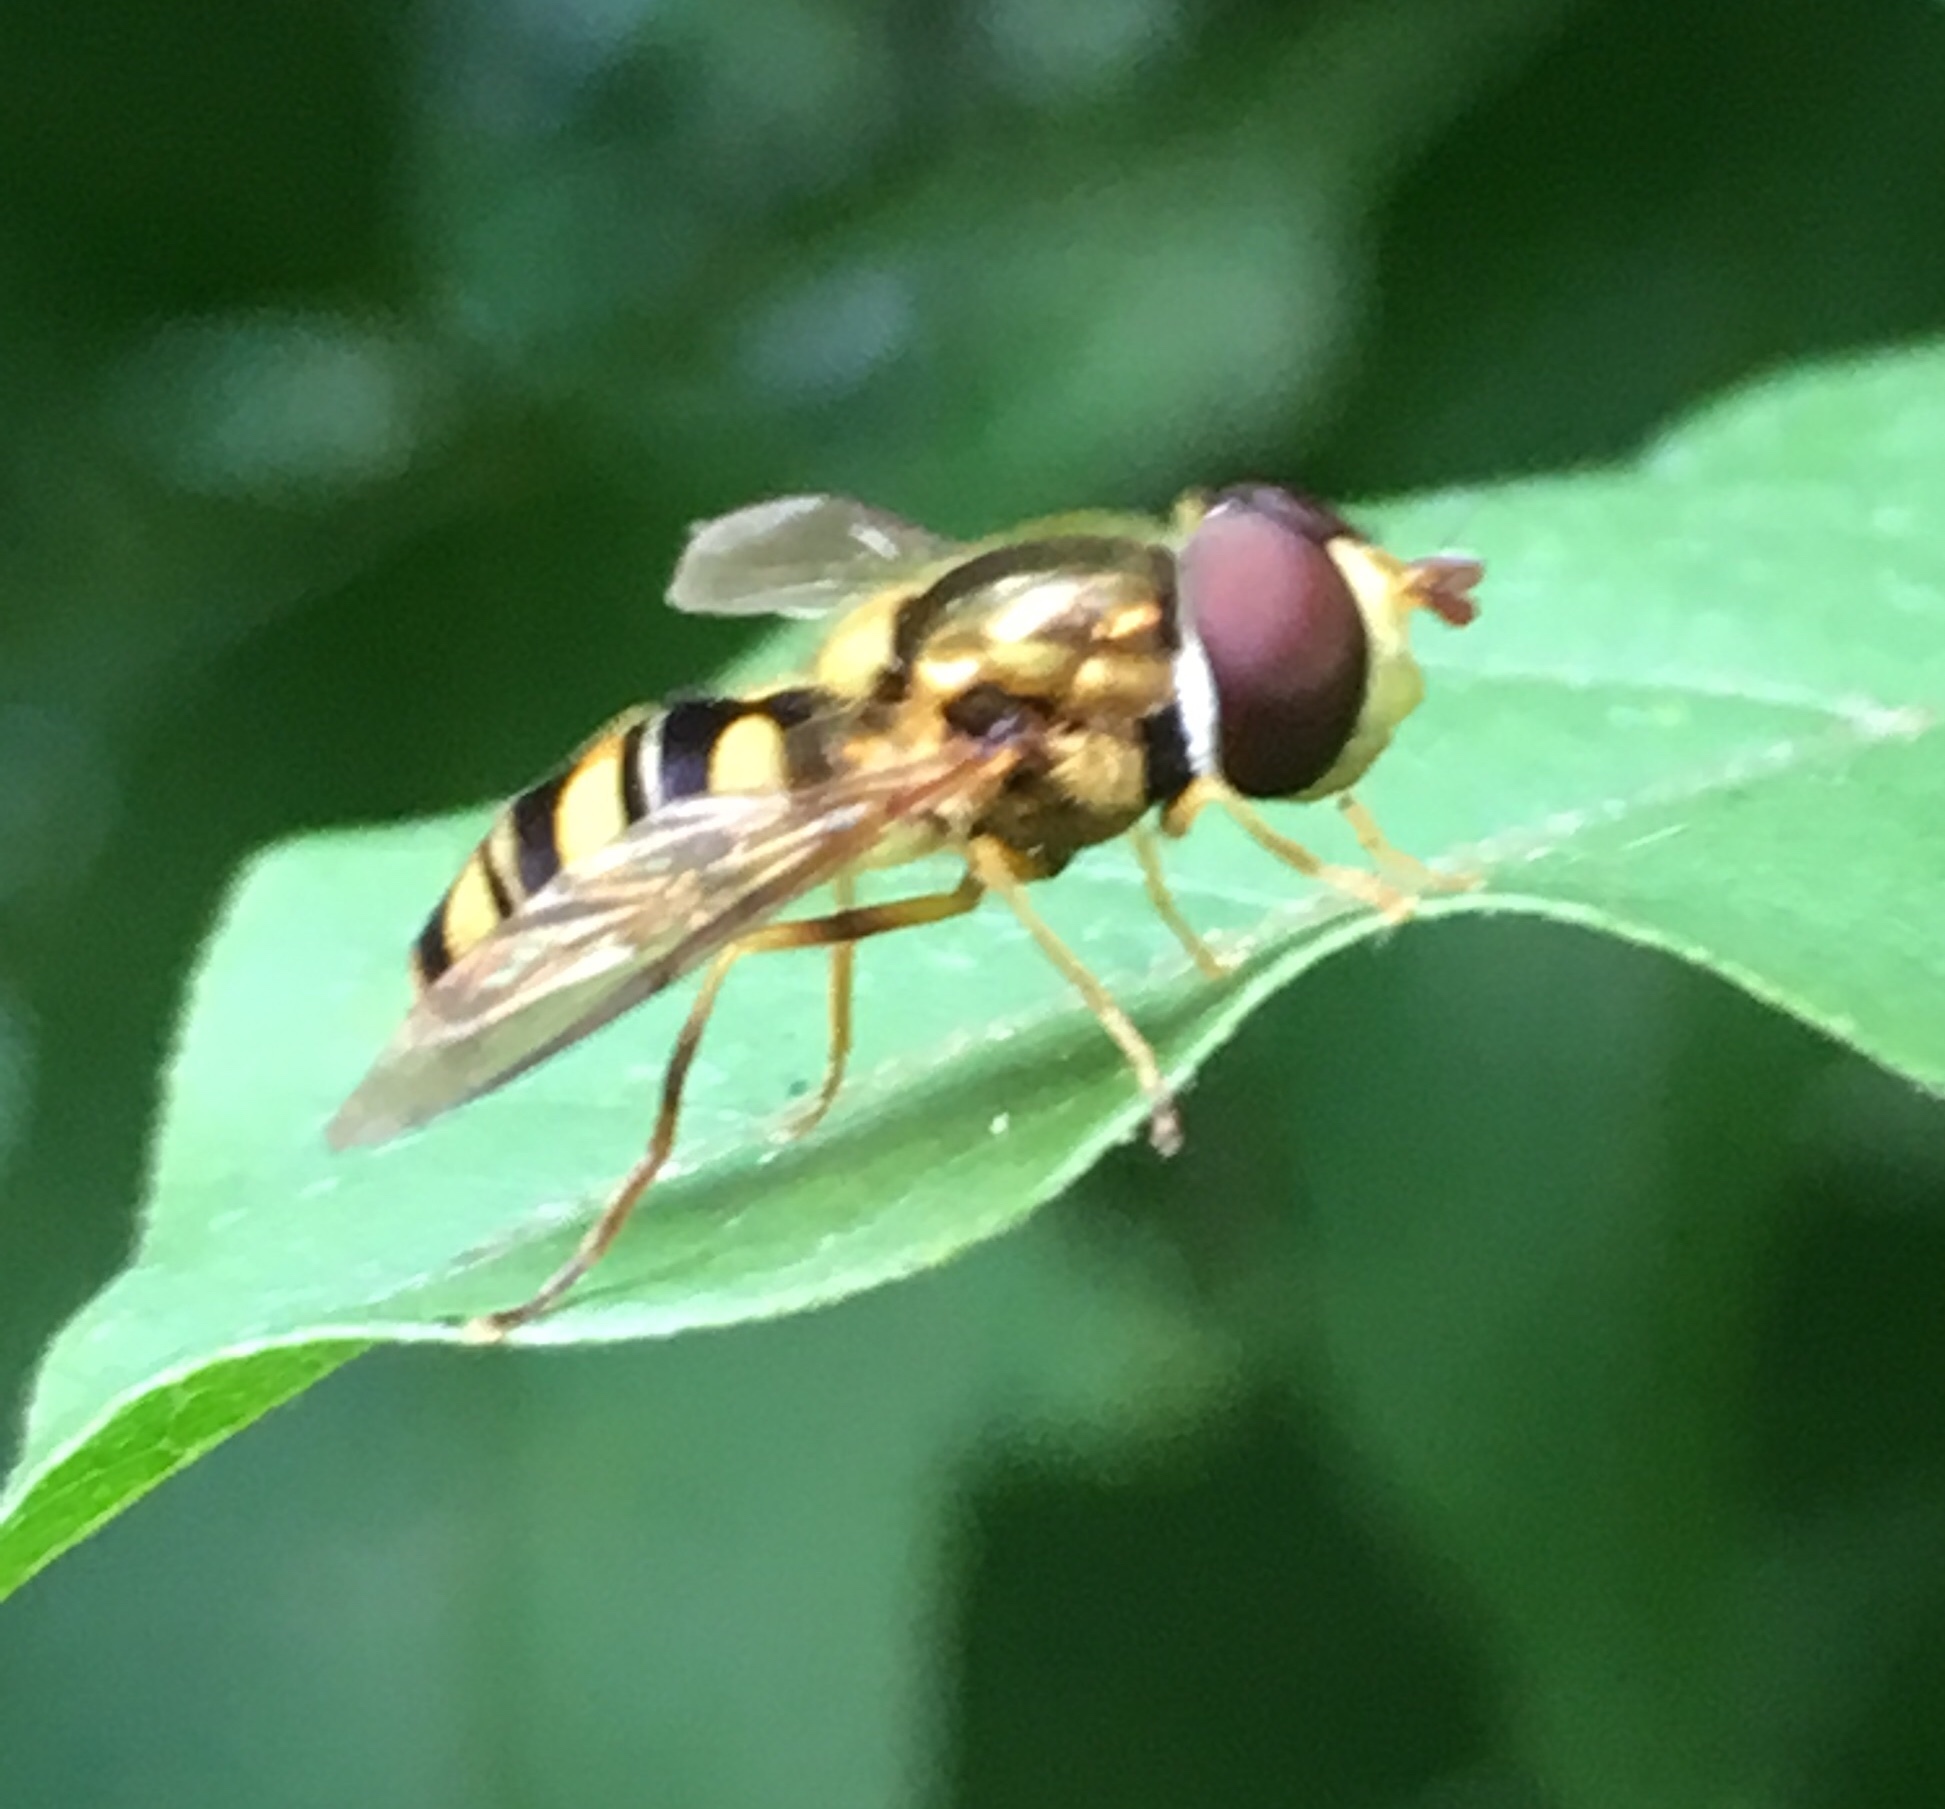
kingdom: Animalia
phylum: Arthropoda
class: Insecta
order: Diptera
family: Syrphidae
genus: Epistrophella
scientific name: Epistrophella emarginata
